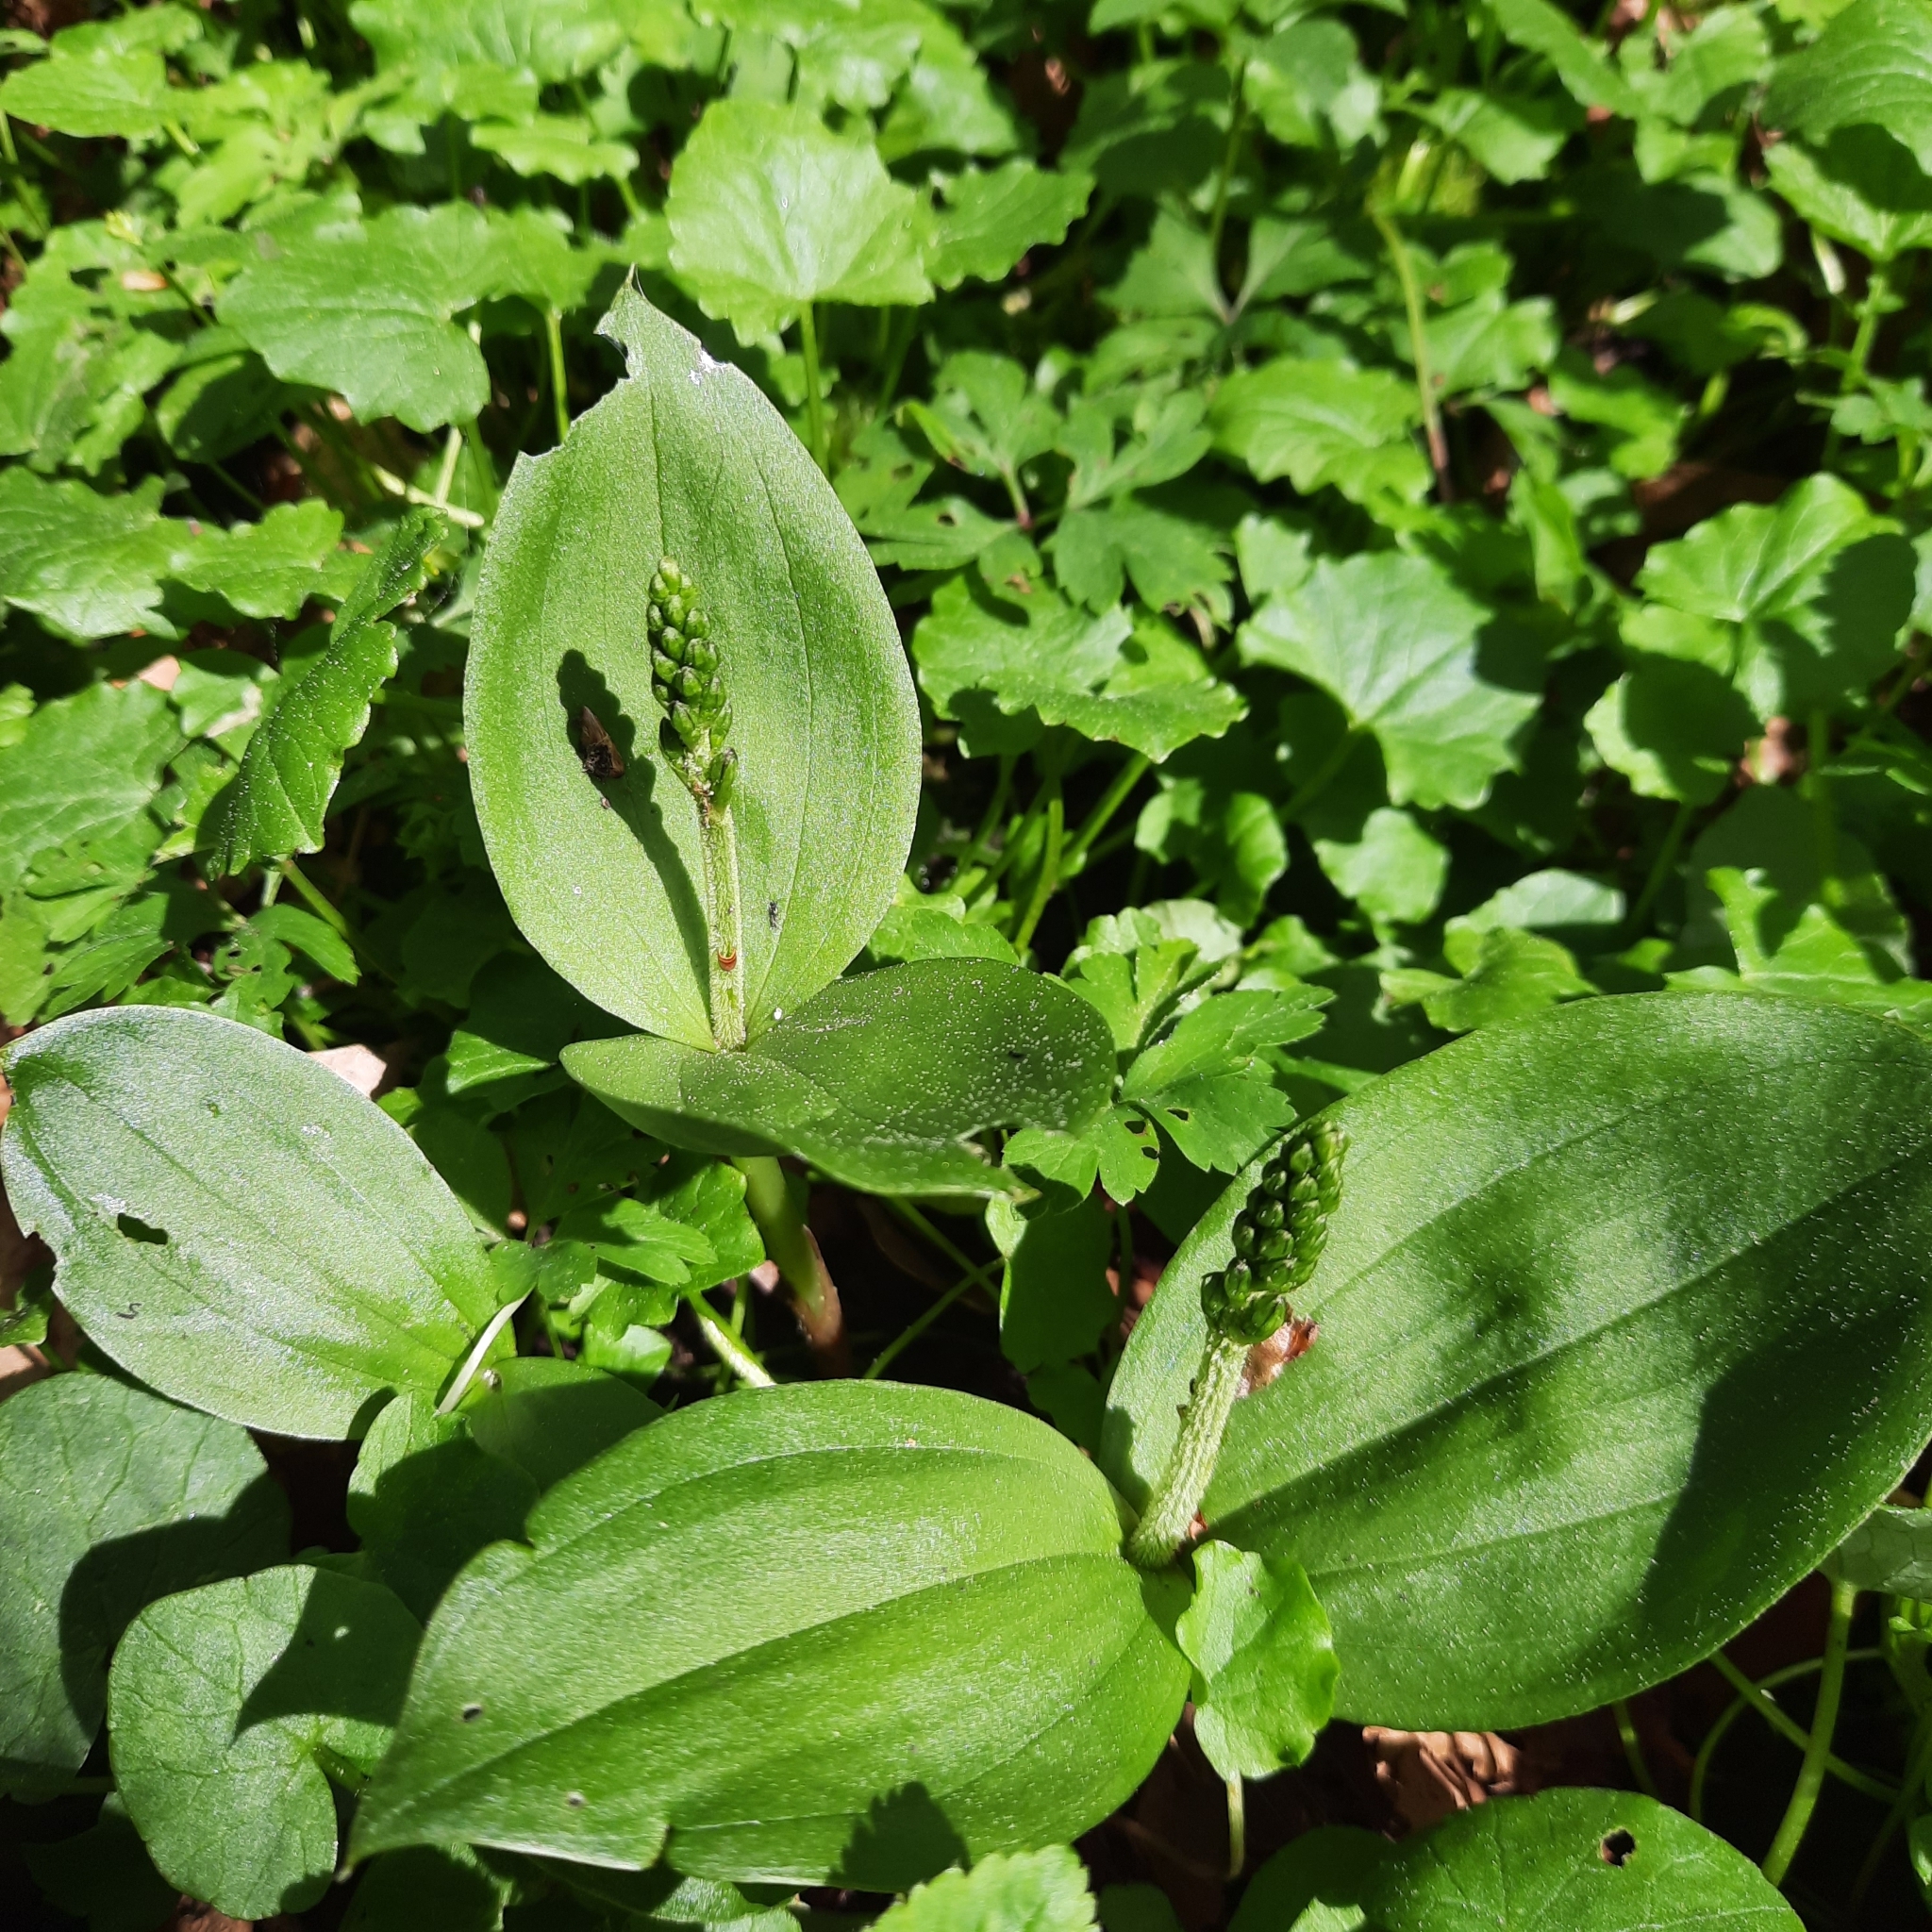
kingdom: Plantae
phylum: Tracheophyta
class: Liliopsida
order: Asparagales
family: Orchidaceae
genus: Neottia
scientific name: Neottia ovata
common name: Common twayblade
